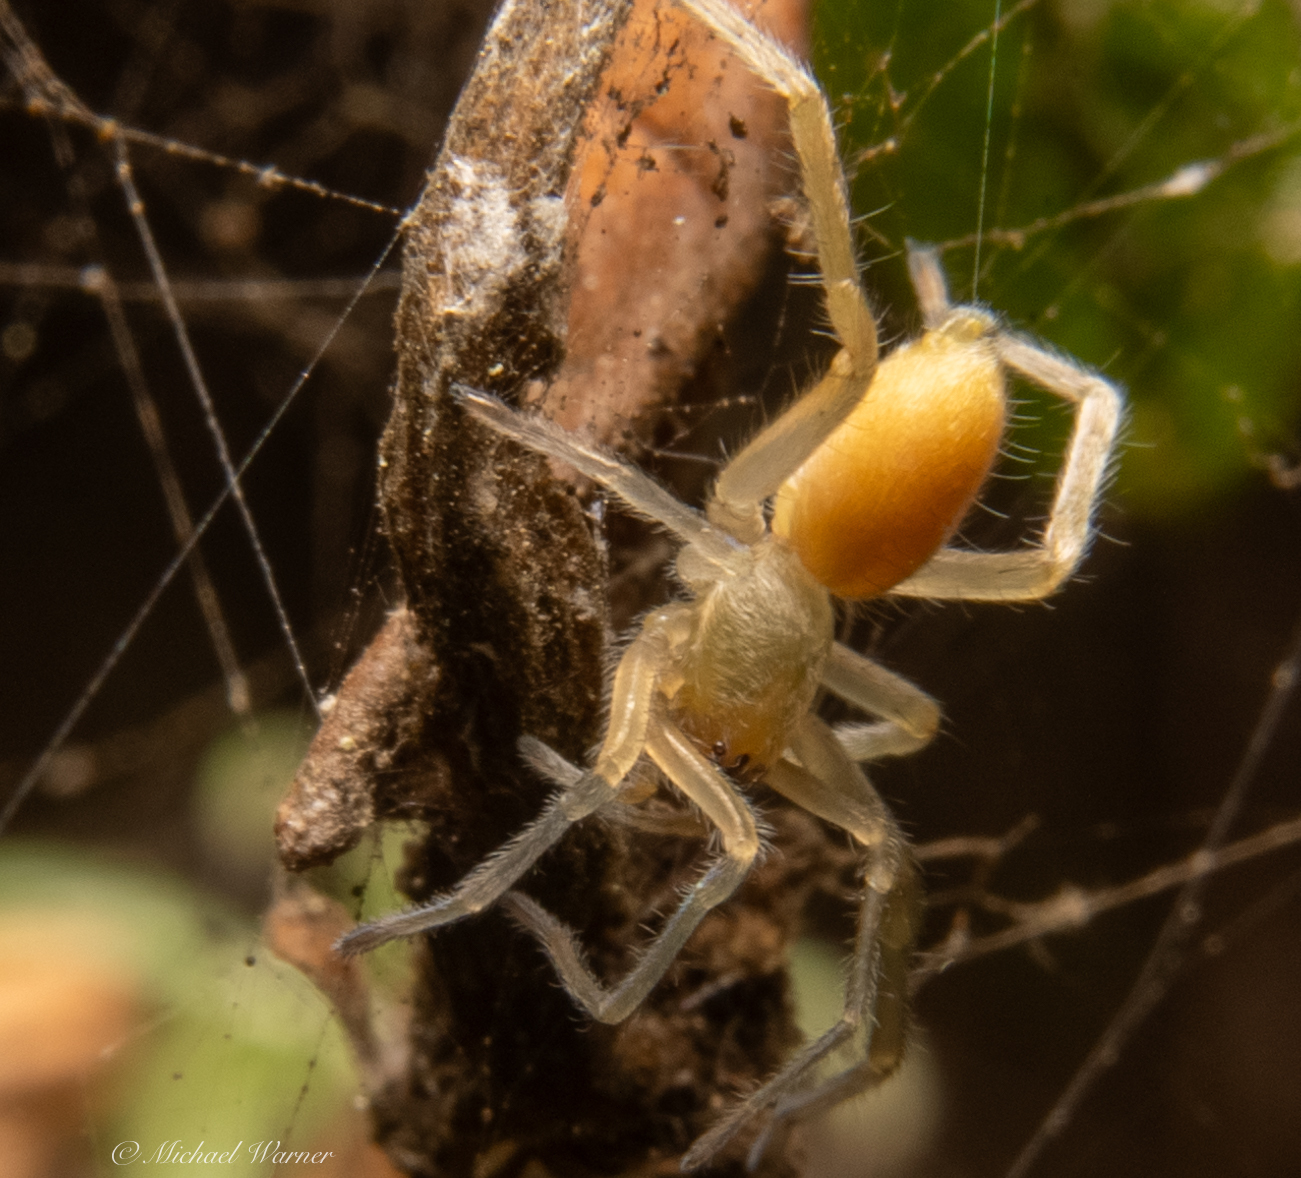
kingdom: Animalia
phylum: Arthropoda
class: Arachnida
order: Araneae
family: Cheiracanthiidae
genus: Cheiracanthium
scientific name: Cheiracanthium mildei
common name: Northern yellow sac spider
